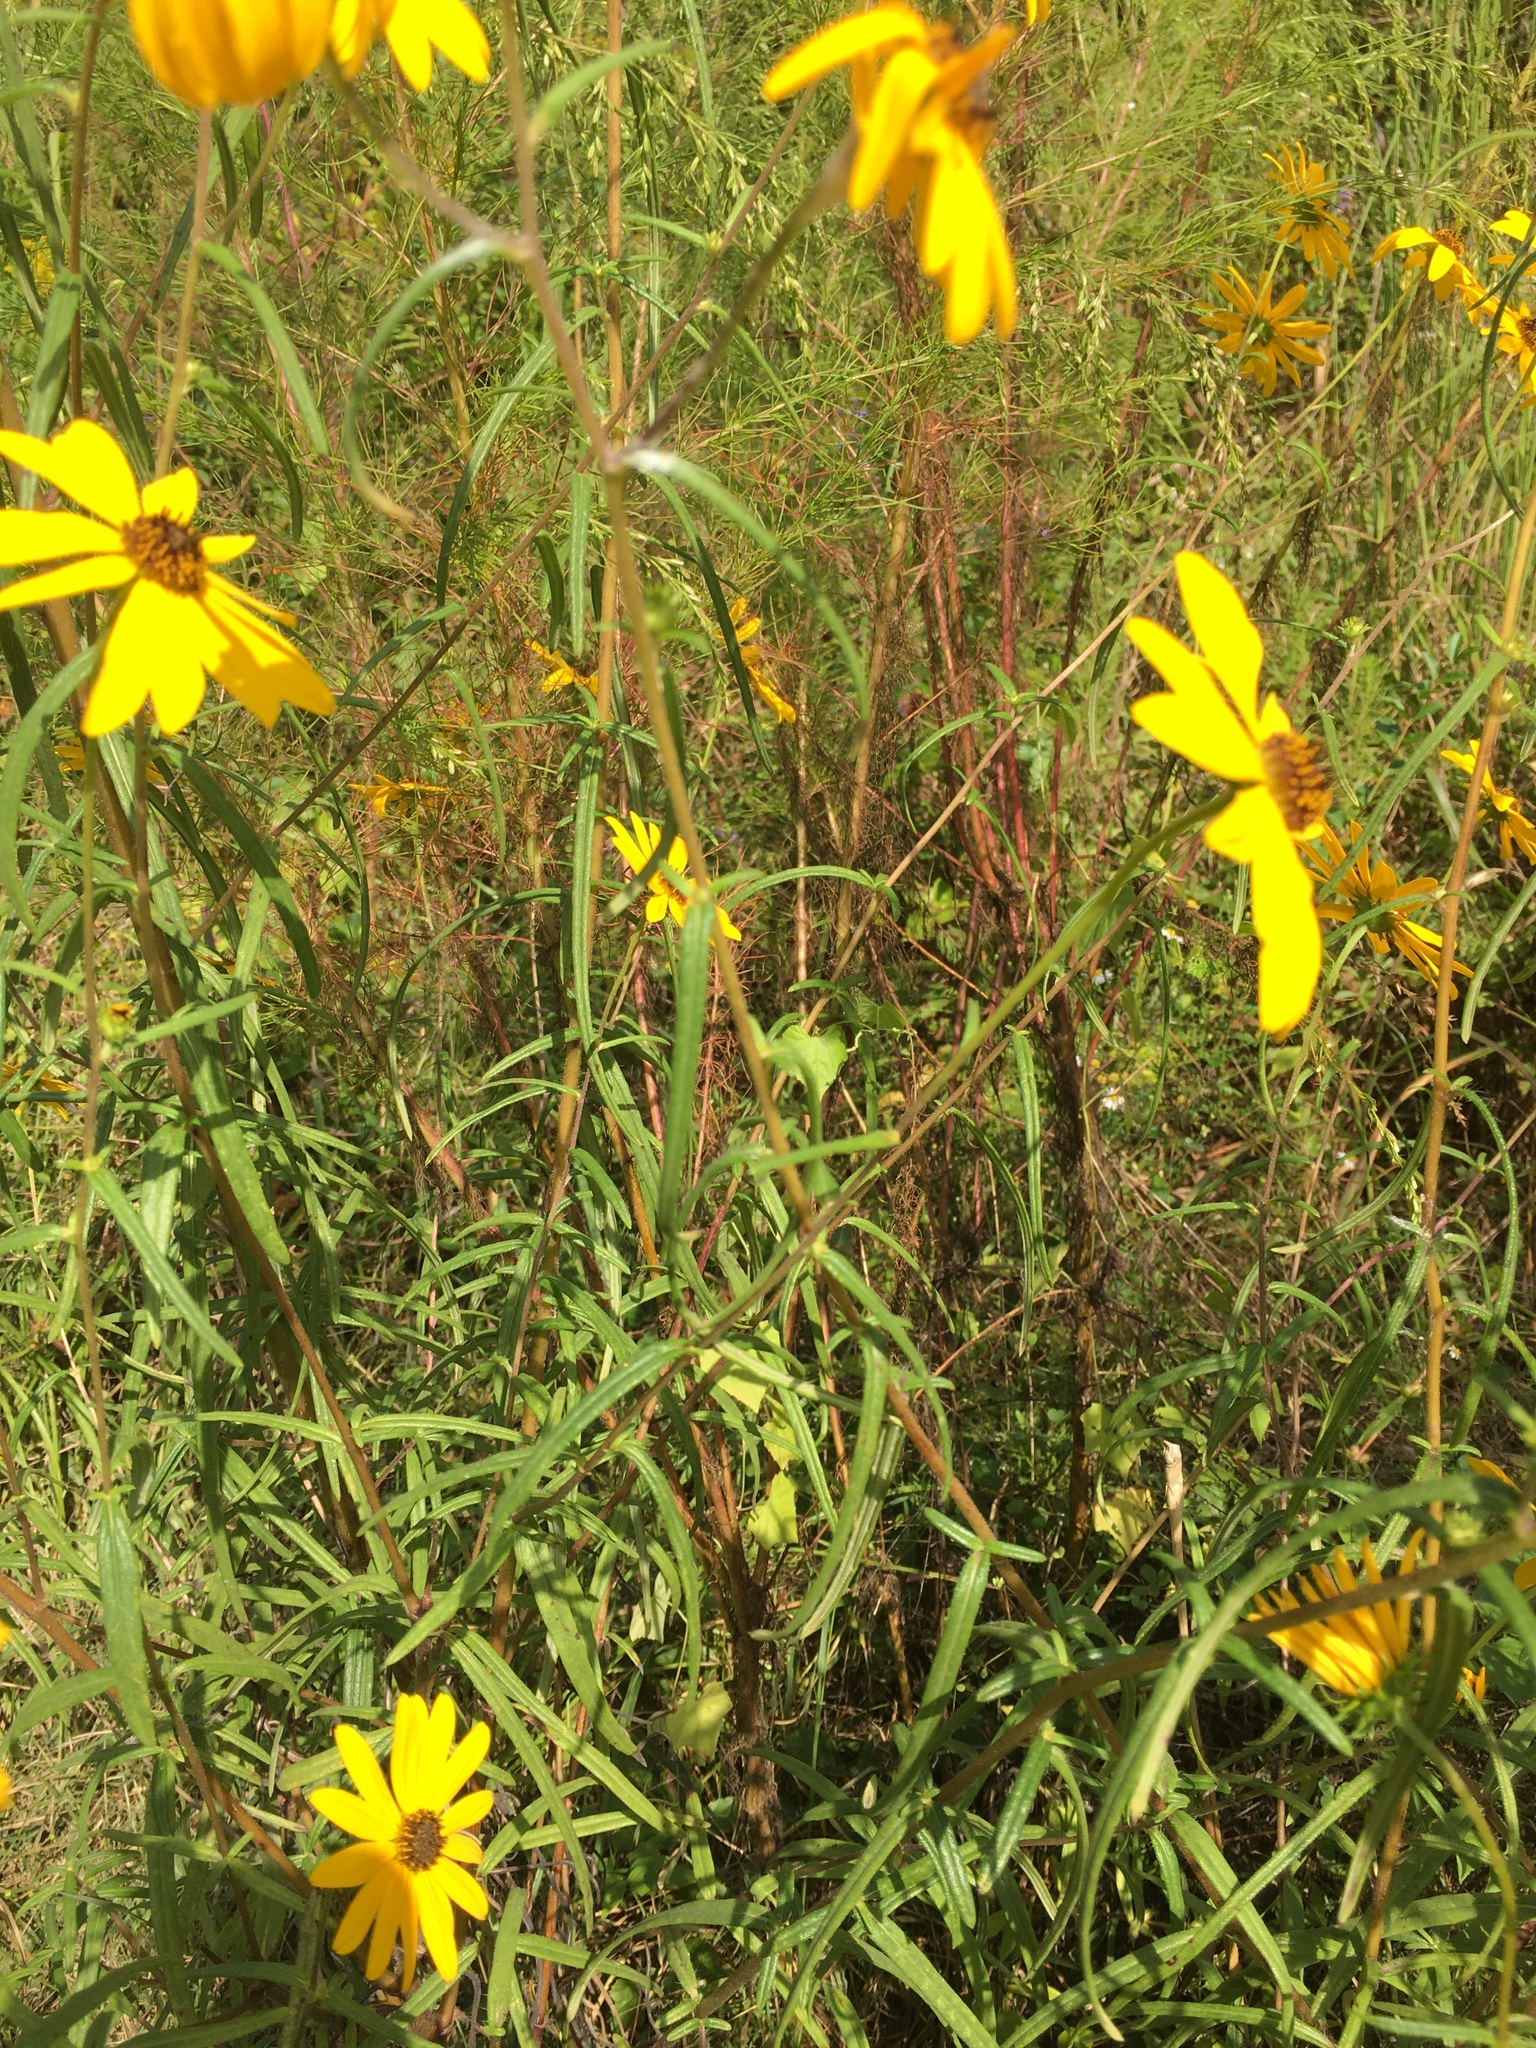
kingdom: Plantae
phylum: Tracheophyta
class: Magnoliopsida
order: Asterales
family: Asteraceae
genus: Helianthus
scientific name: Helianthus angustifolius
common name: Swamp sunflower
